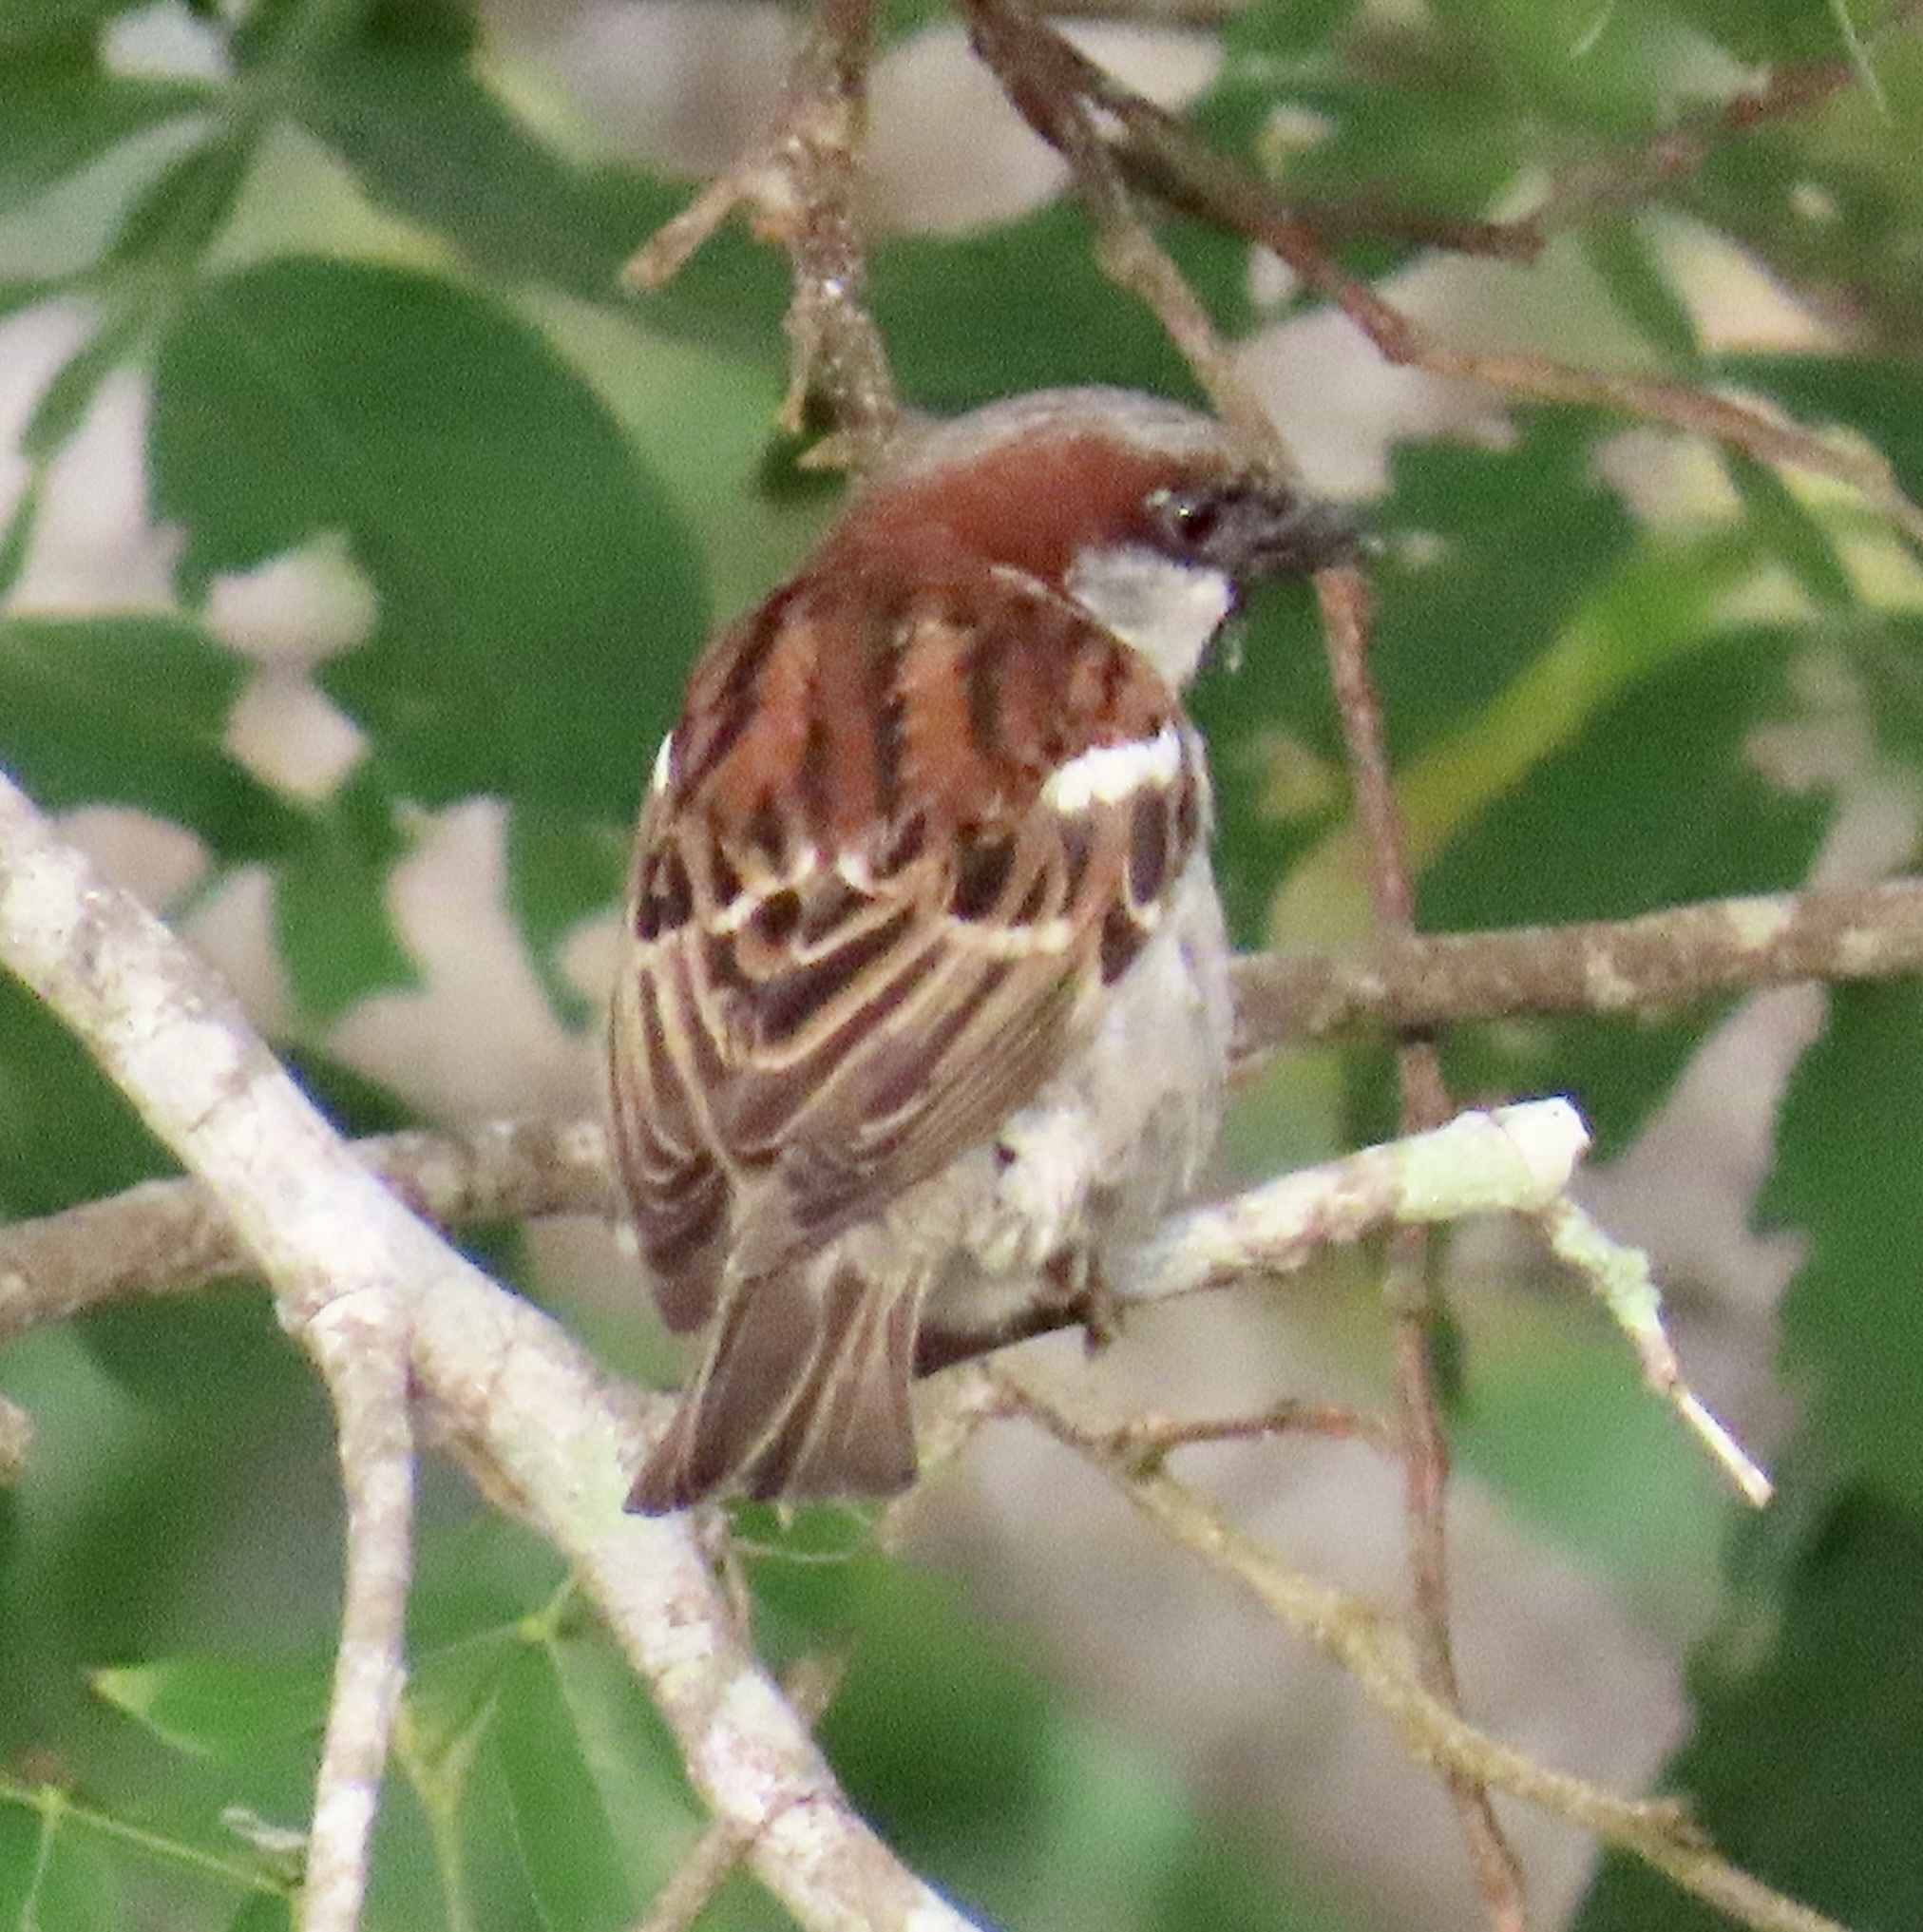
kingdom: Animalia
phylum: Chordata
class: Aves
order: Passeriformes
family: Passeridae
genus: Passer
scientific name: Passer domesticus
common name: House sparrow
